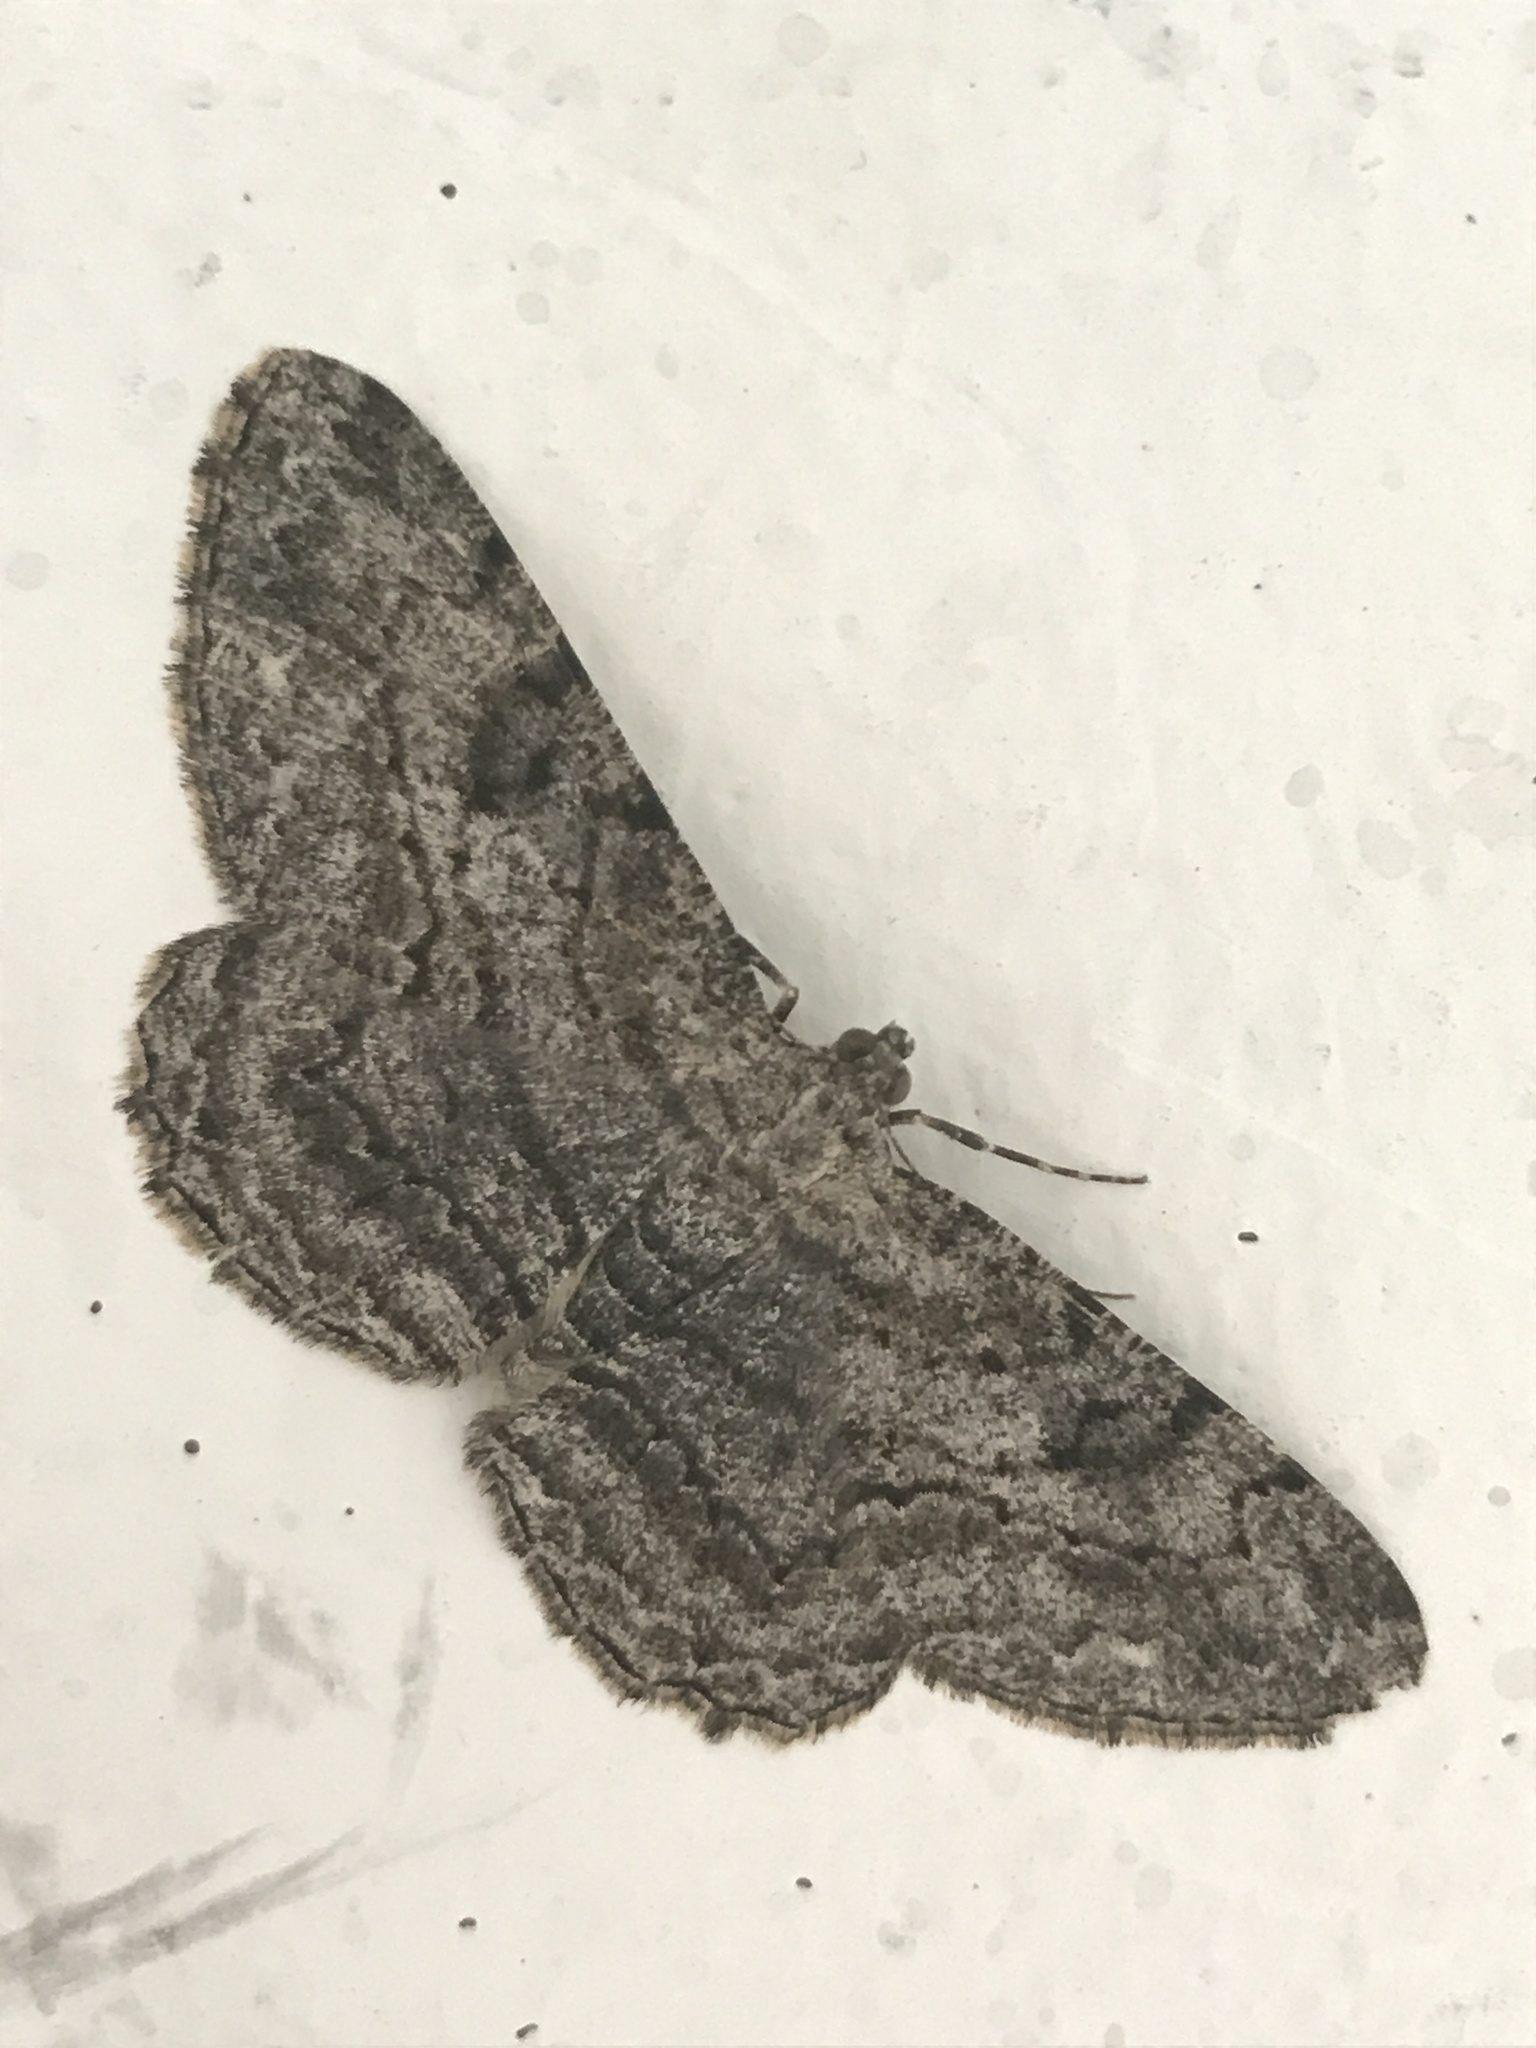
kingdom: Animalia
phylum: Arthropoda
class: Insecta
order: Lepidoptera
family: Geometridae
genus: Peribatodes
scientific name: Peribatodes rhomboidaria
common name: Willow beauty
